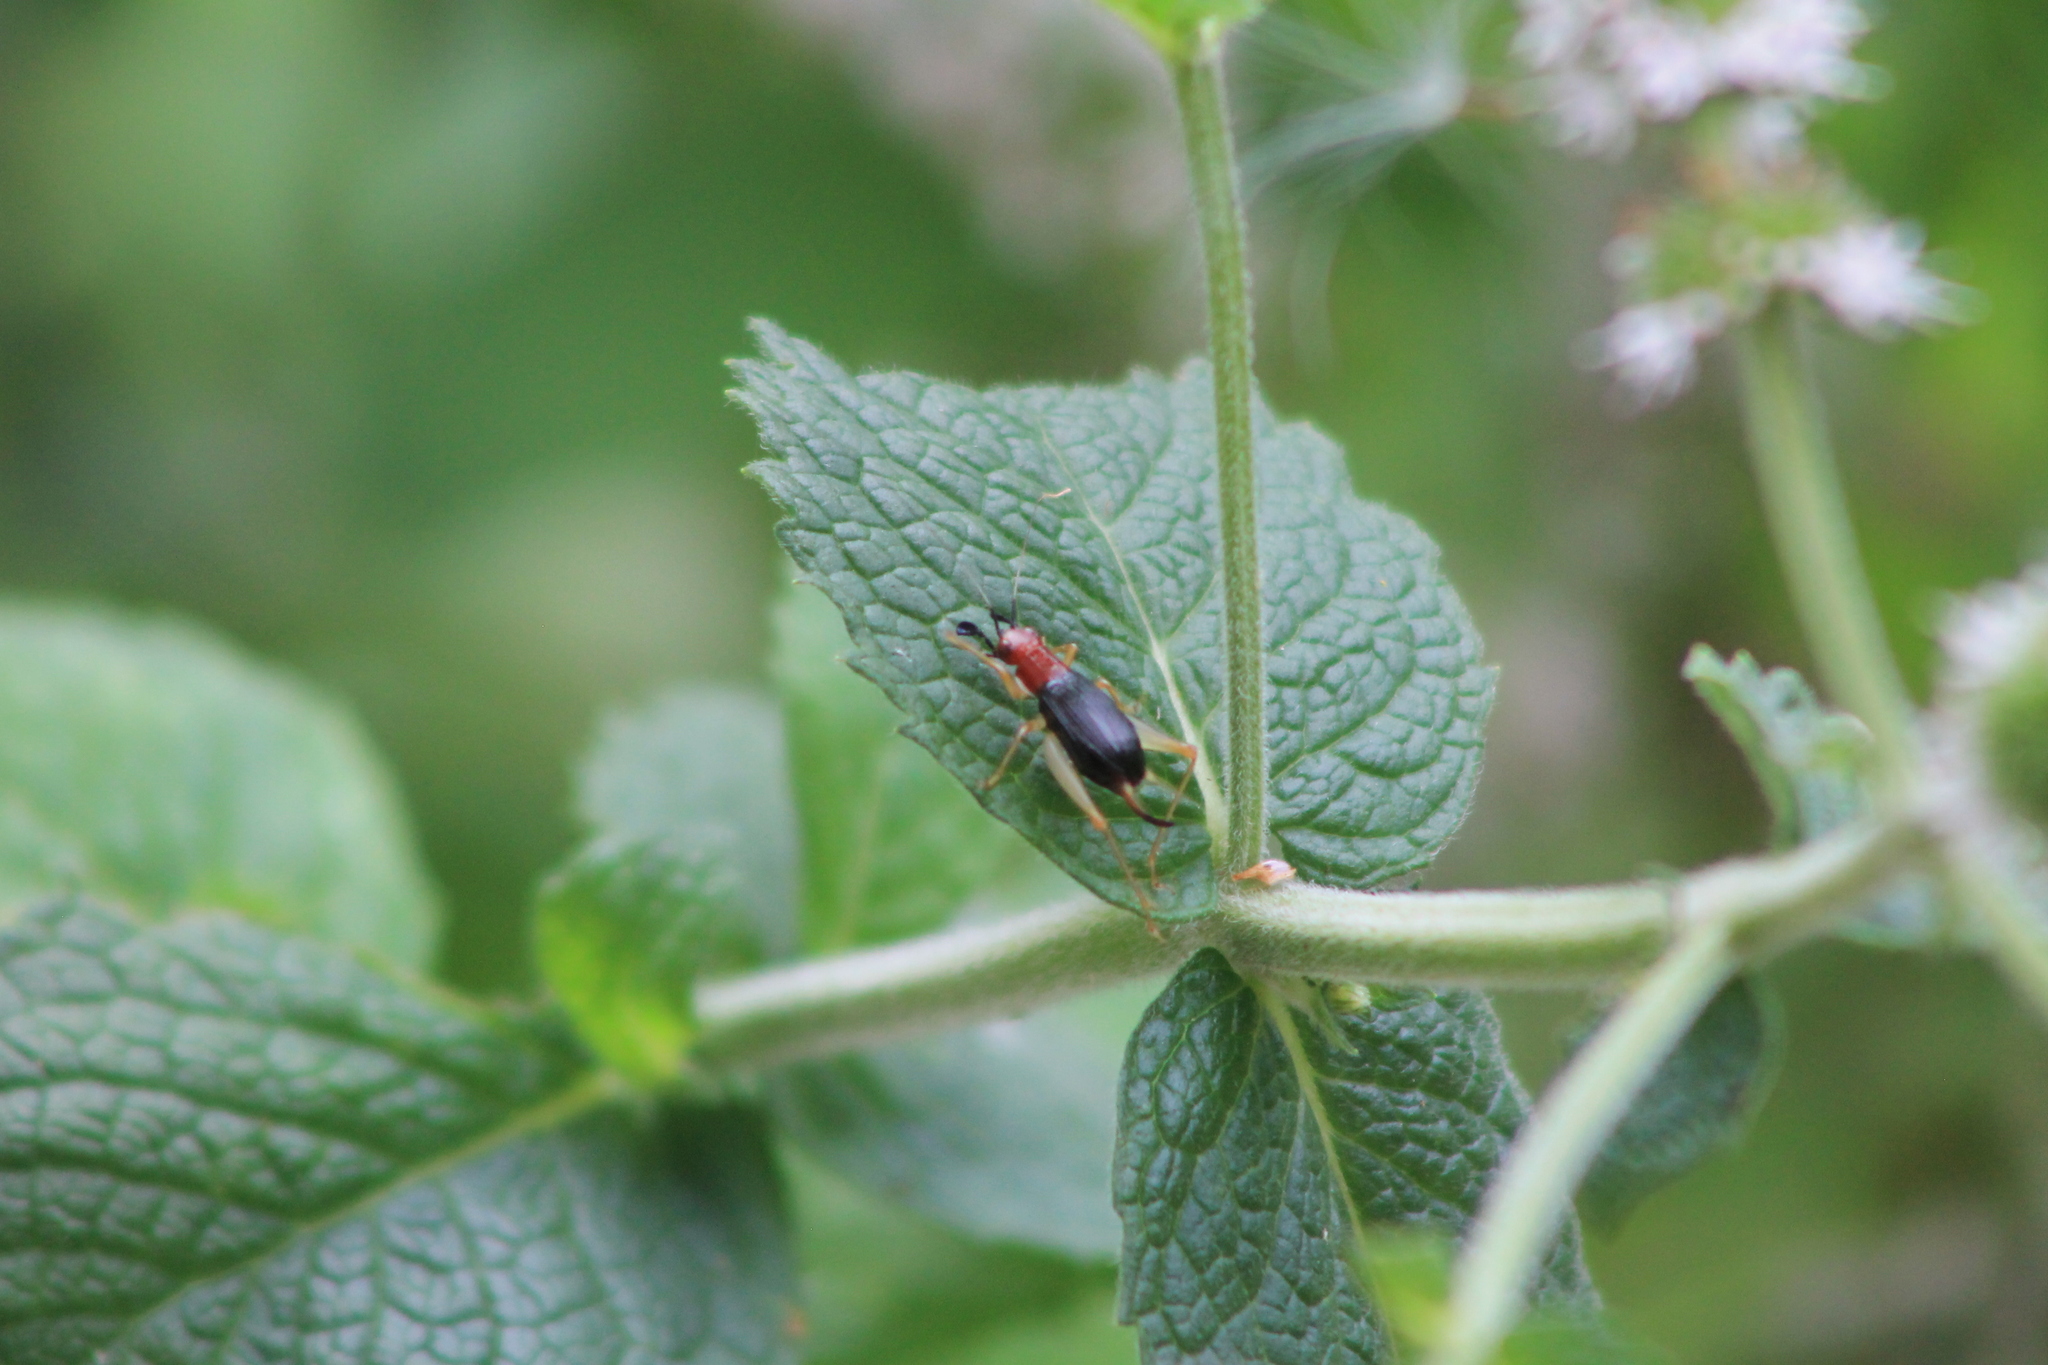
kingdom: Animalia
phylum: Arthropoda
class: Insecta
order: Orthoptera
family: Trigonidiidae
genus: Phyllopalpus
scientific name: Phyllopalpus pulchellus
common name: Handsome trig
